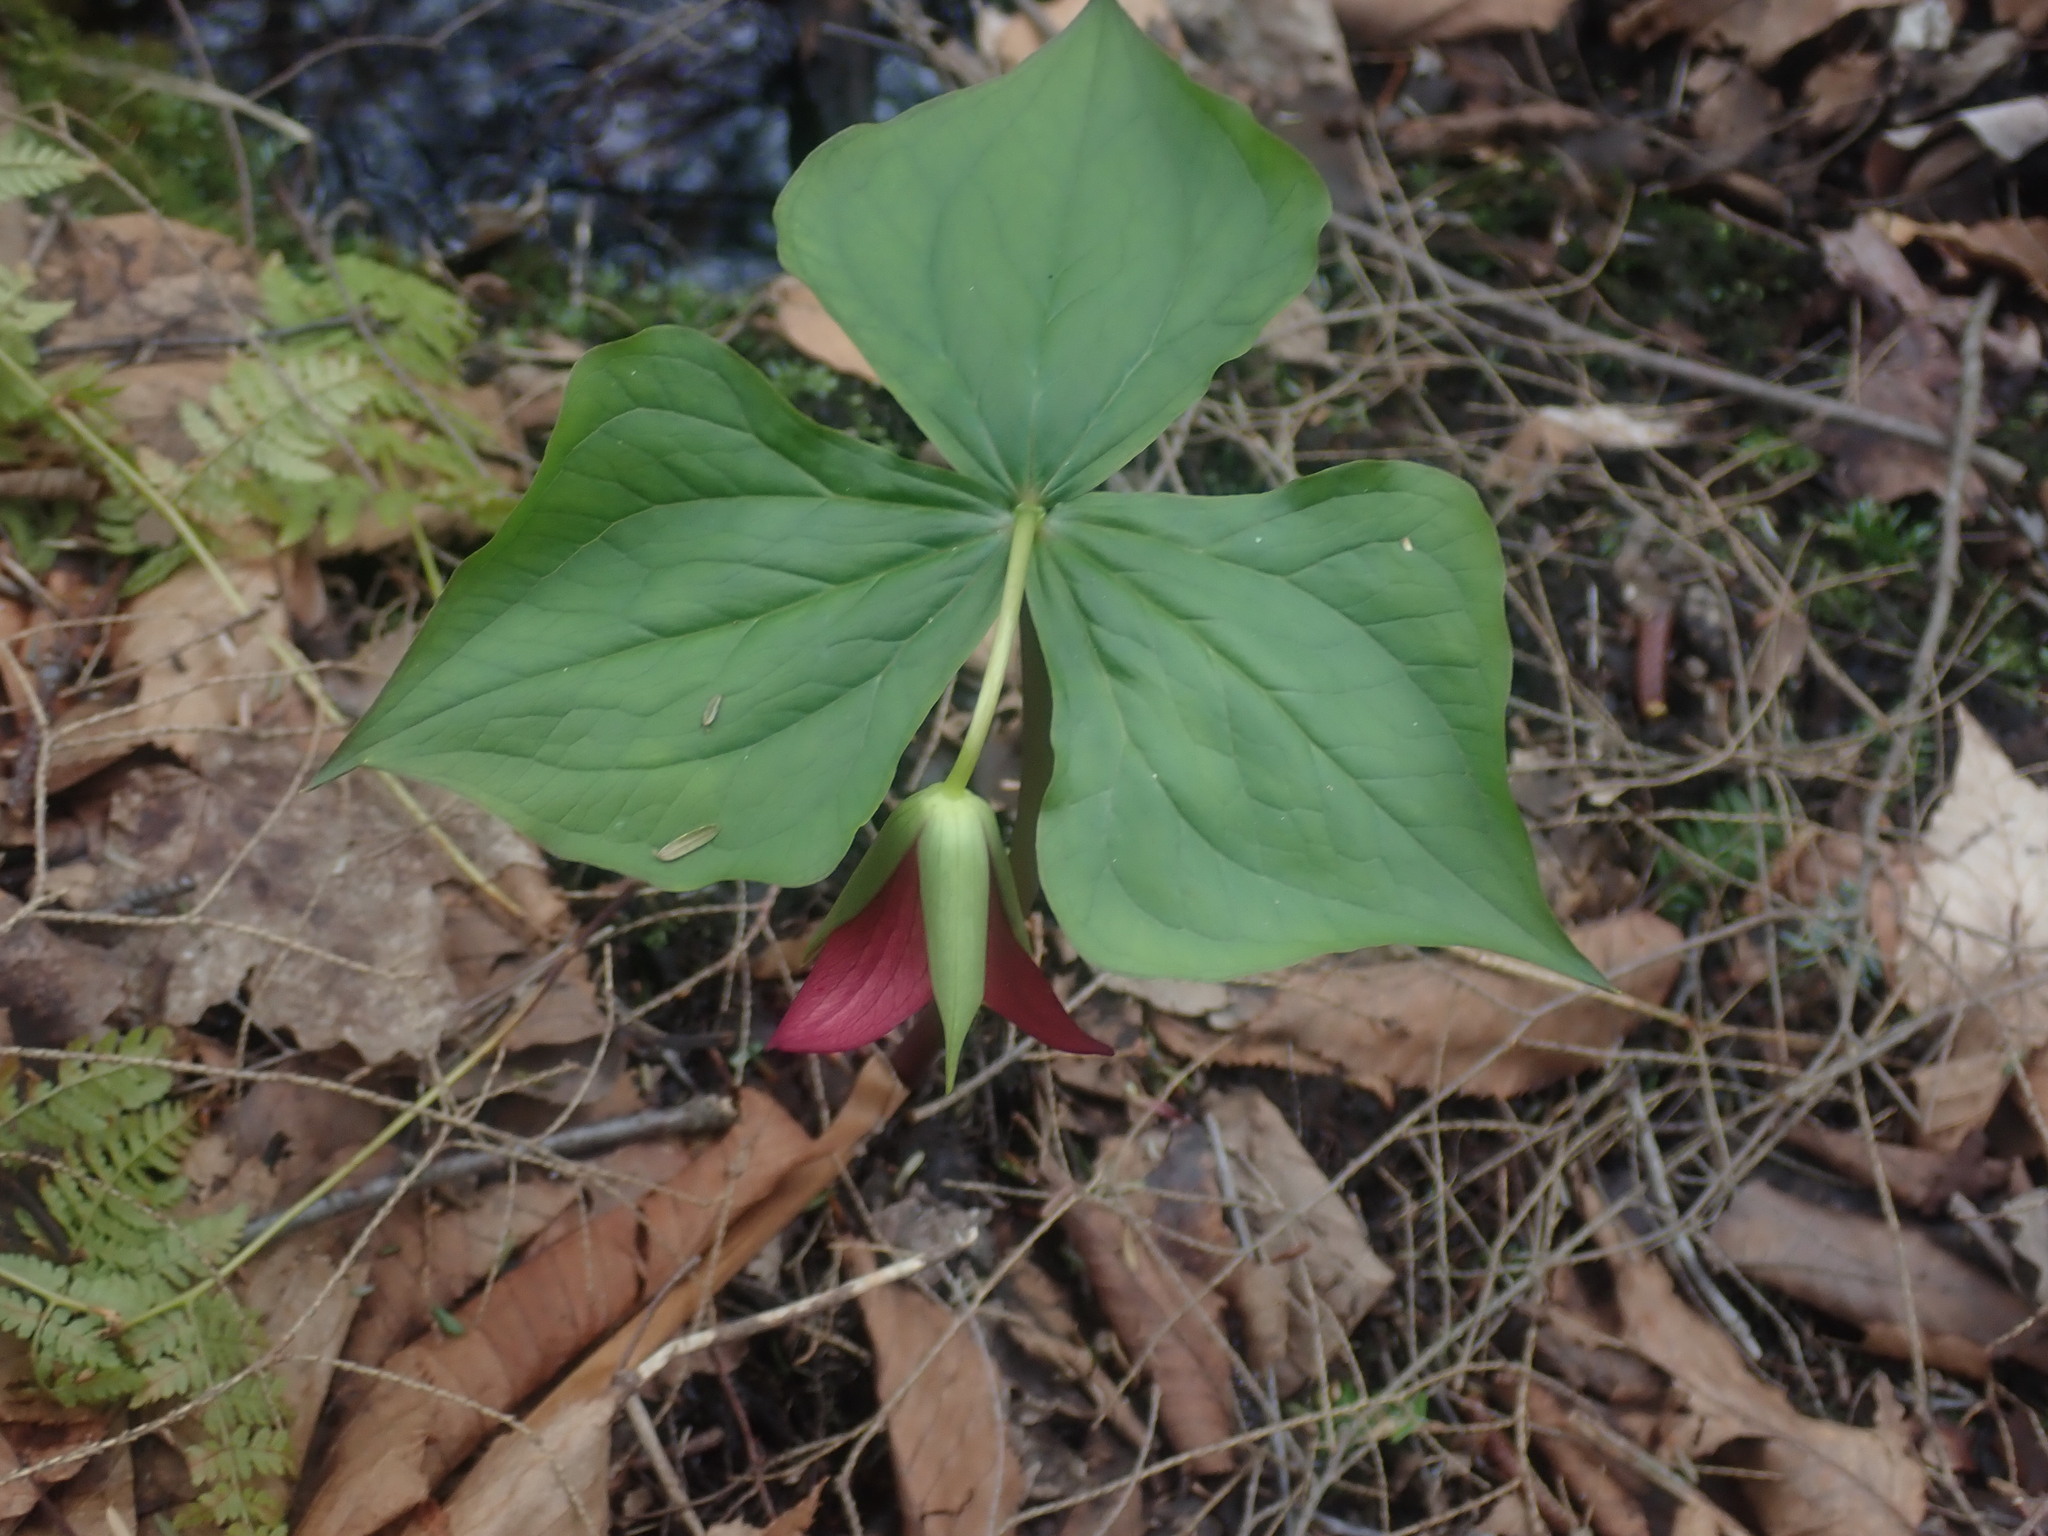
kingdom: Plantae
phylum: Tracheophyta
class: Liliopsida
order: Liliales
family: Melanthiaceae
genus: Trillium
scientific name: Trillium erectum
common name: Purple trillium
